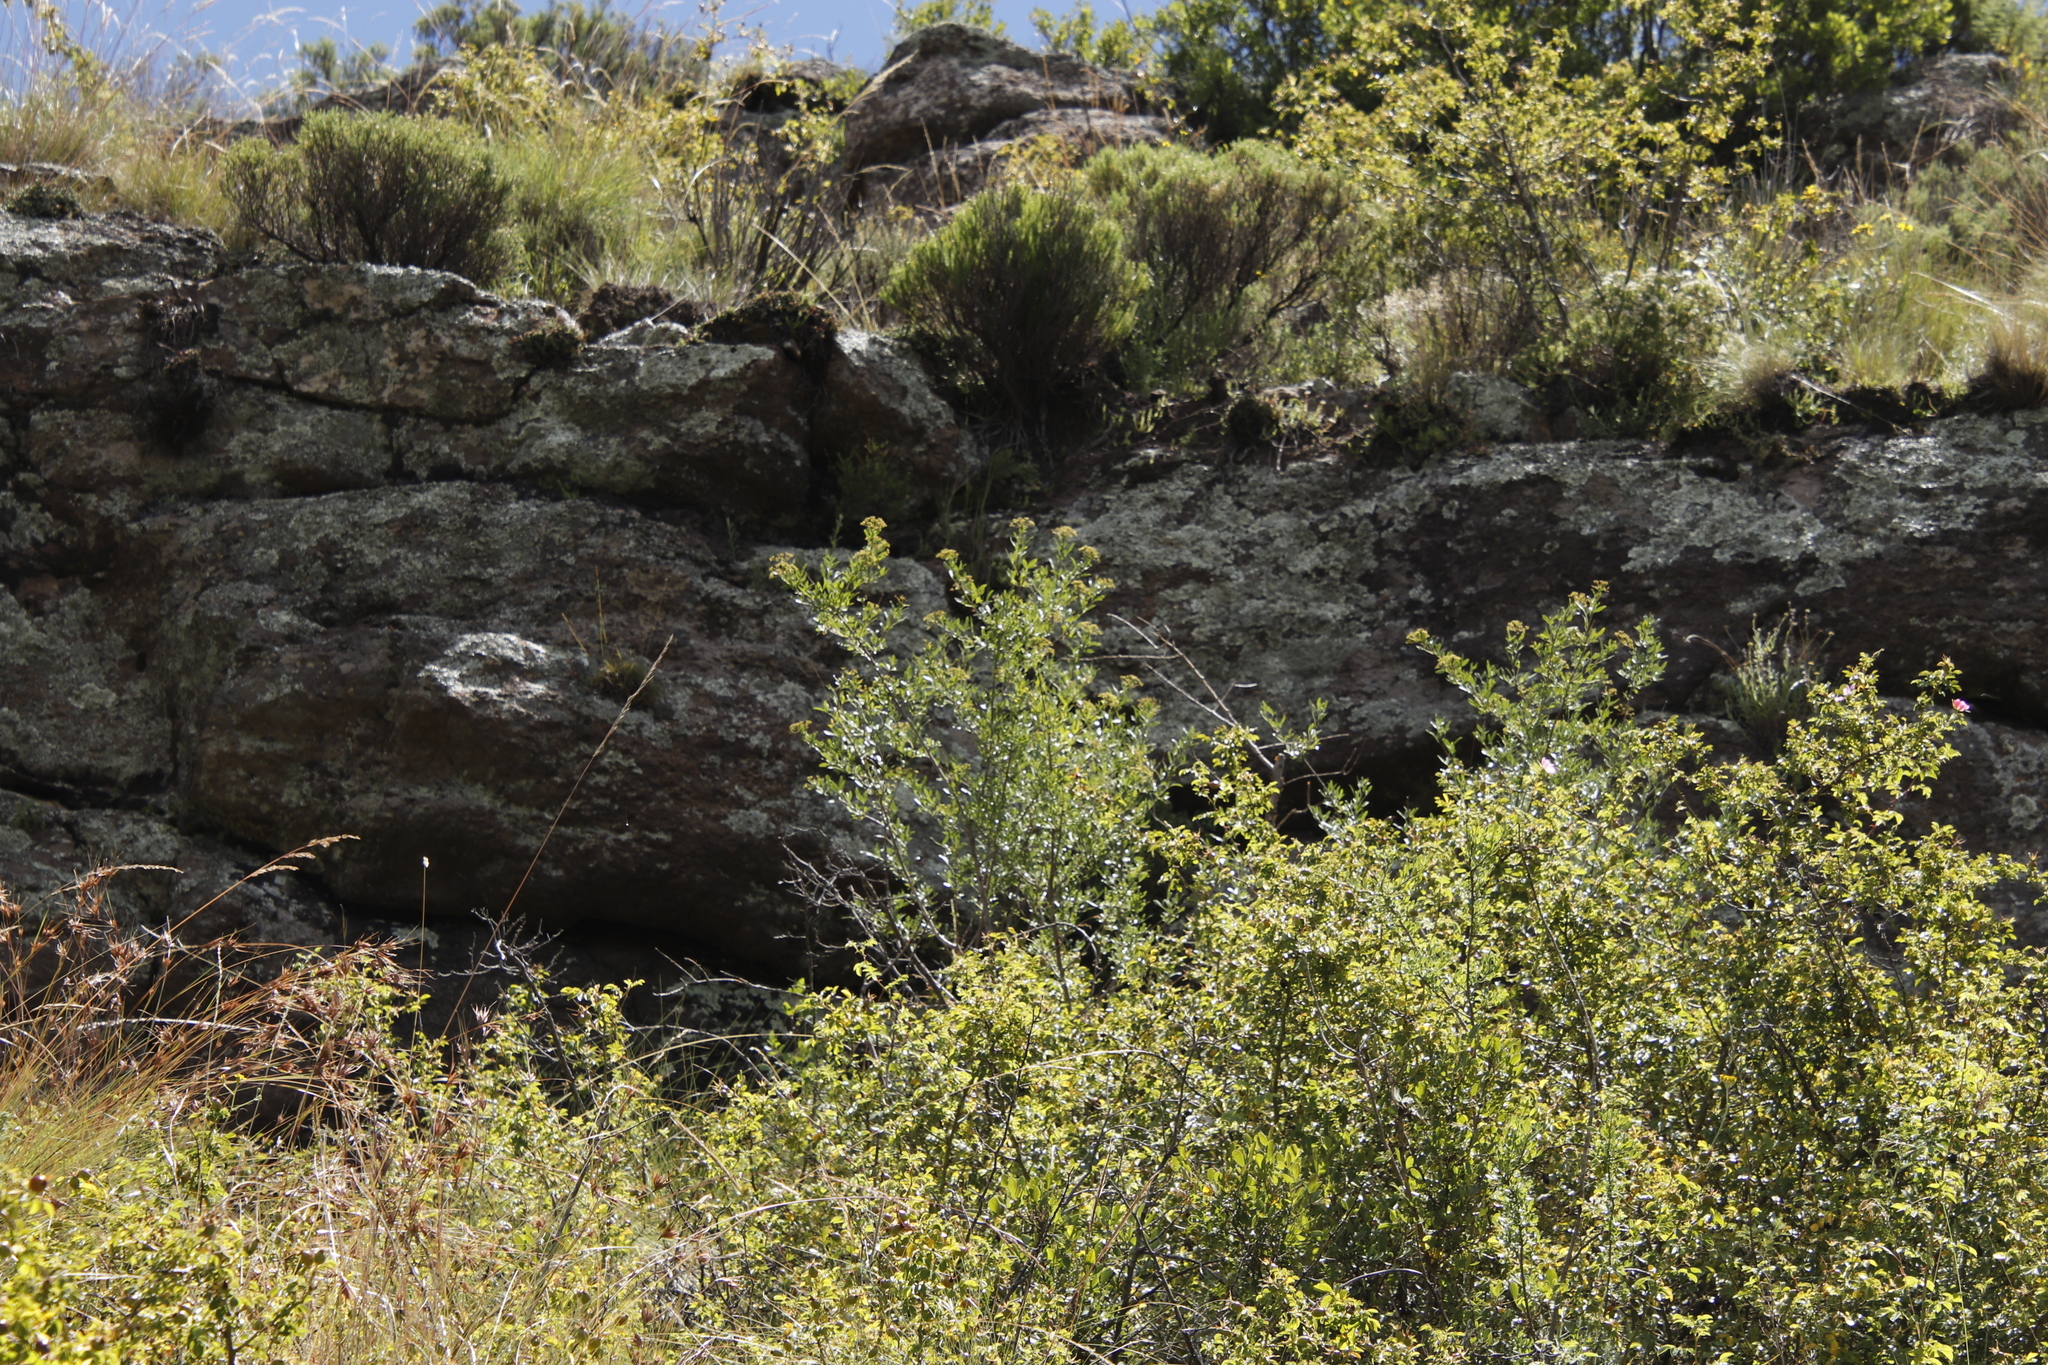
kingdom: Plantae
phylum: Tracheophyta
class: Magnoliopsida
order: Apiales
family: Apiaceae
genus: Polemannia
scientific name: Polemannia simplicior
